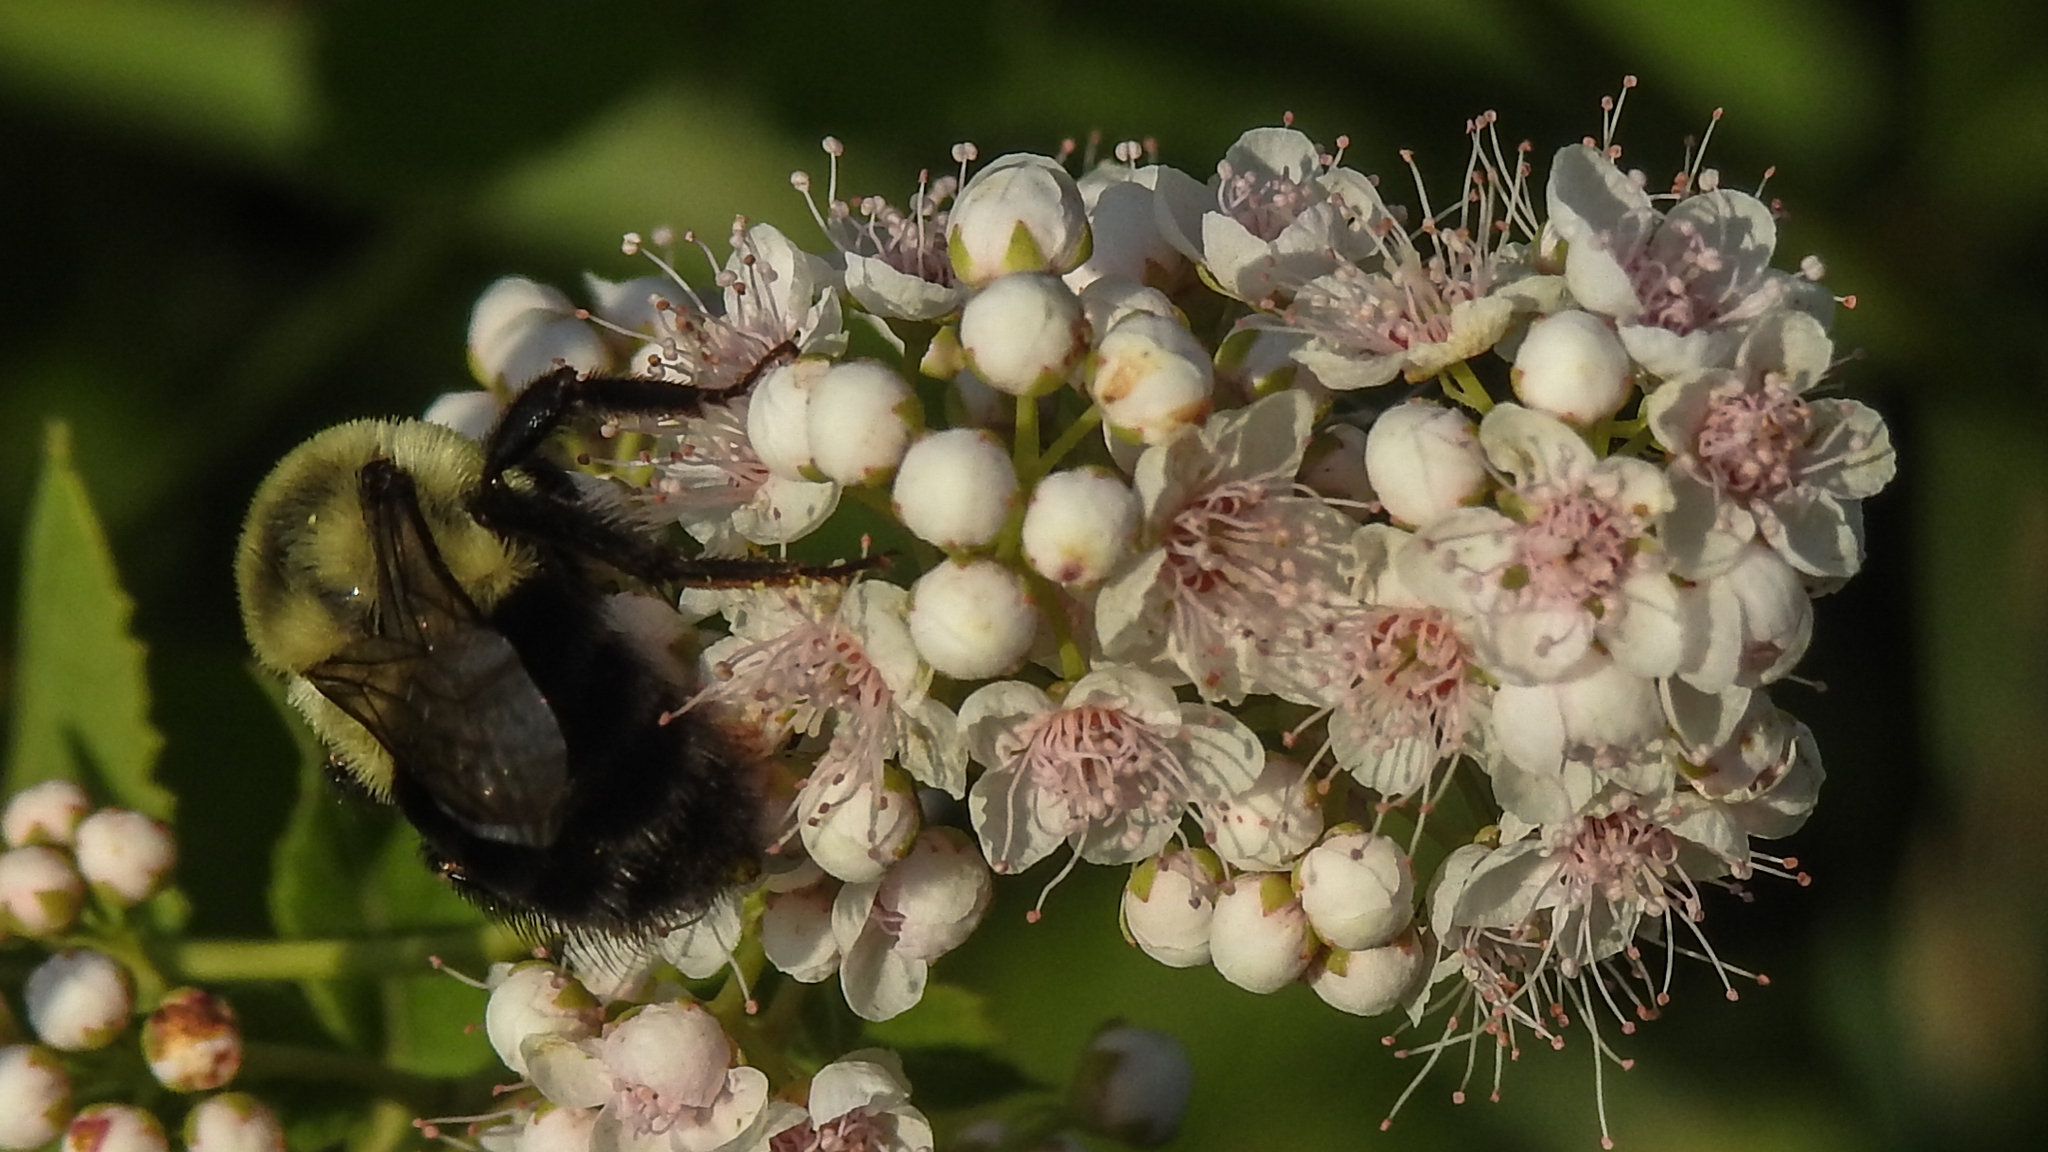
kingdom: Animalia
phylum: Arthropoda
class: Insecta
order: Hymenoptera
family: Apidae
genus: Bombus
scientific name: Bombus impatiens
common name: Common eastern bumble bee
